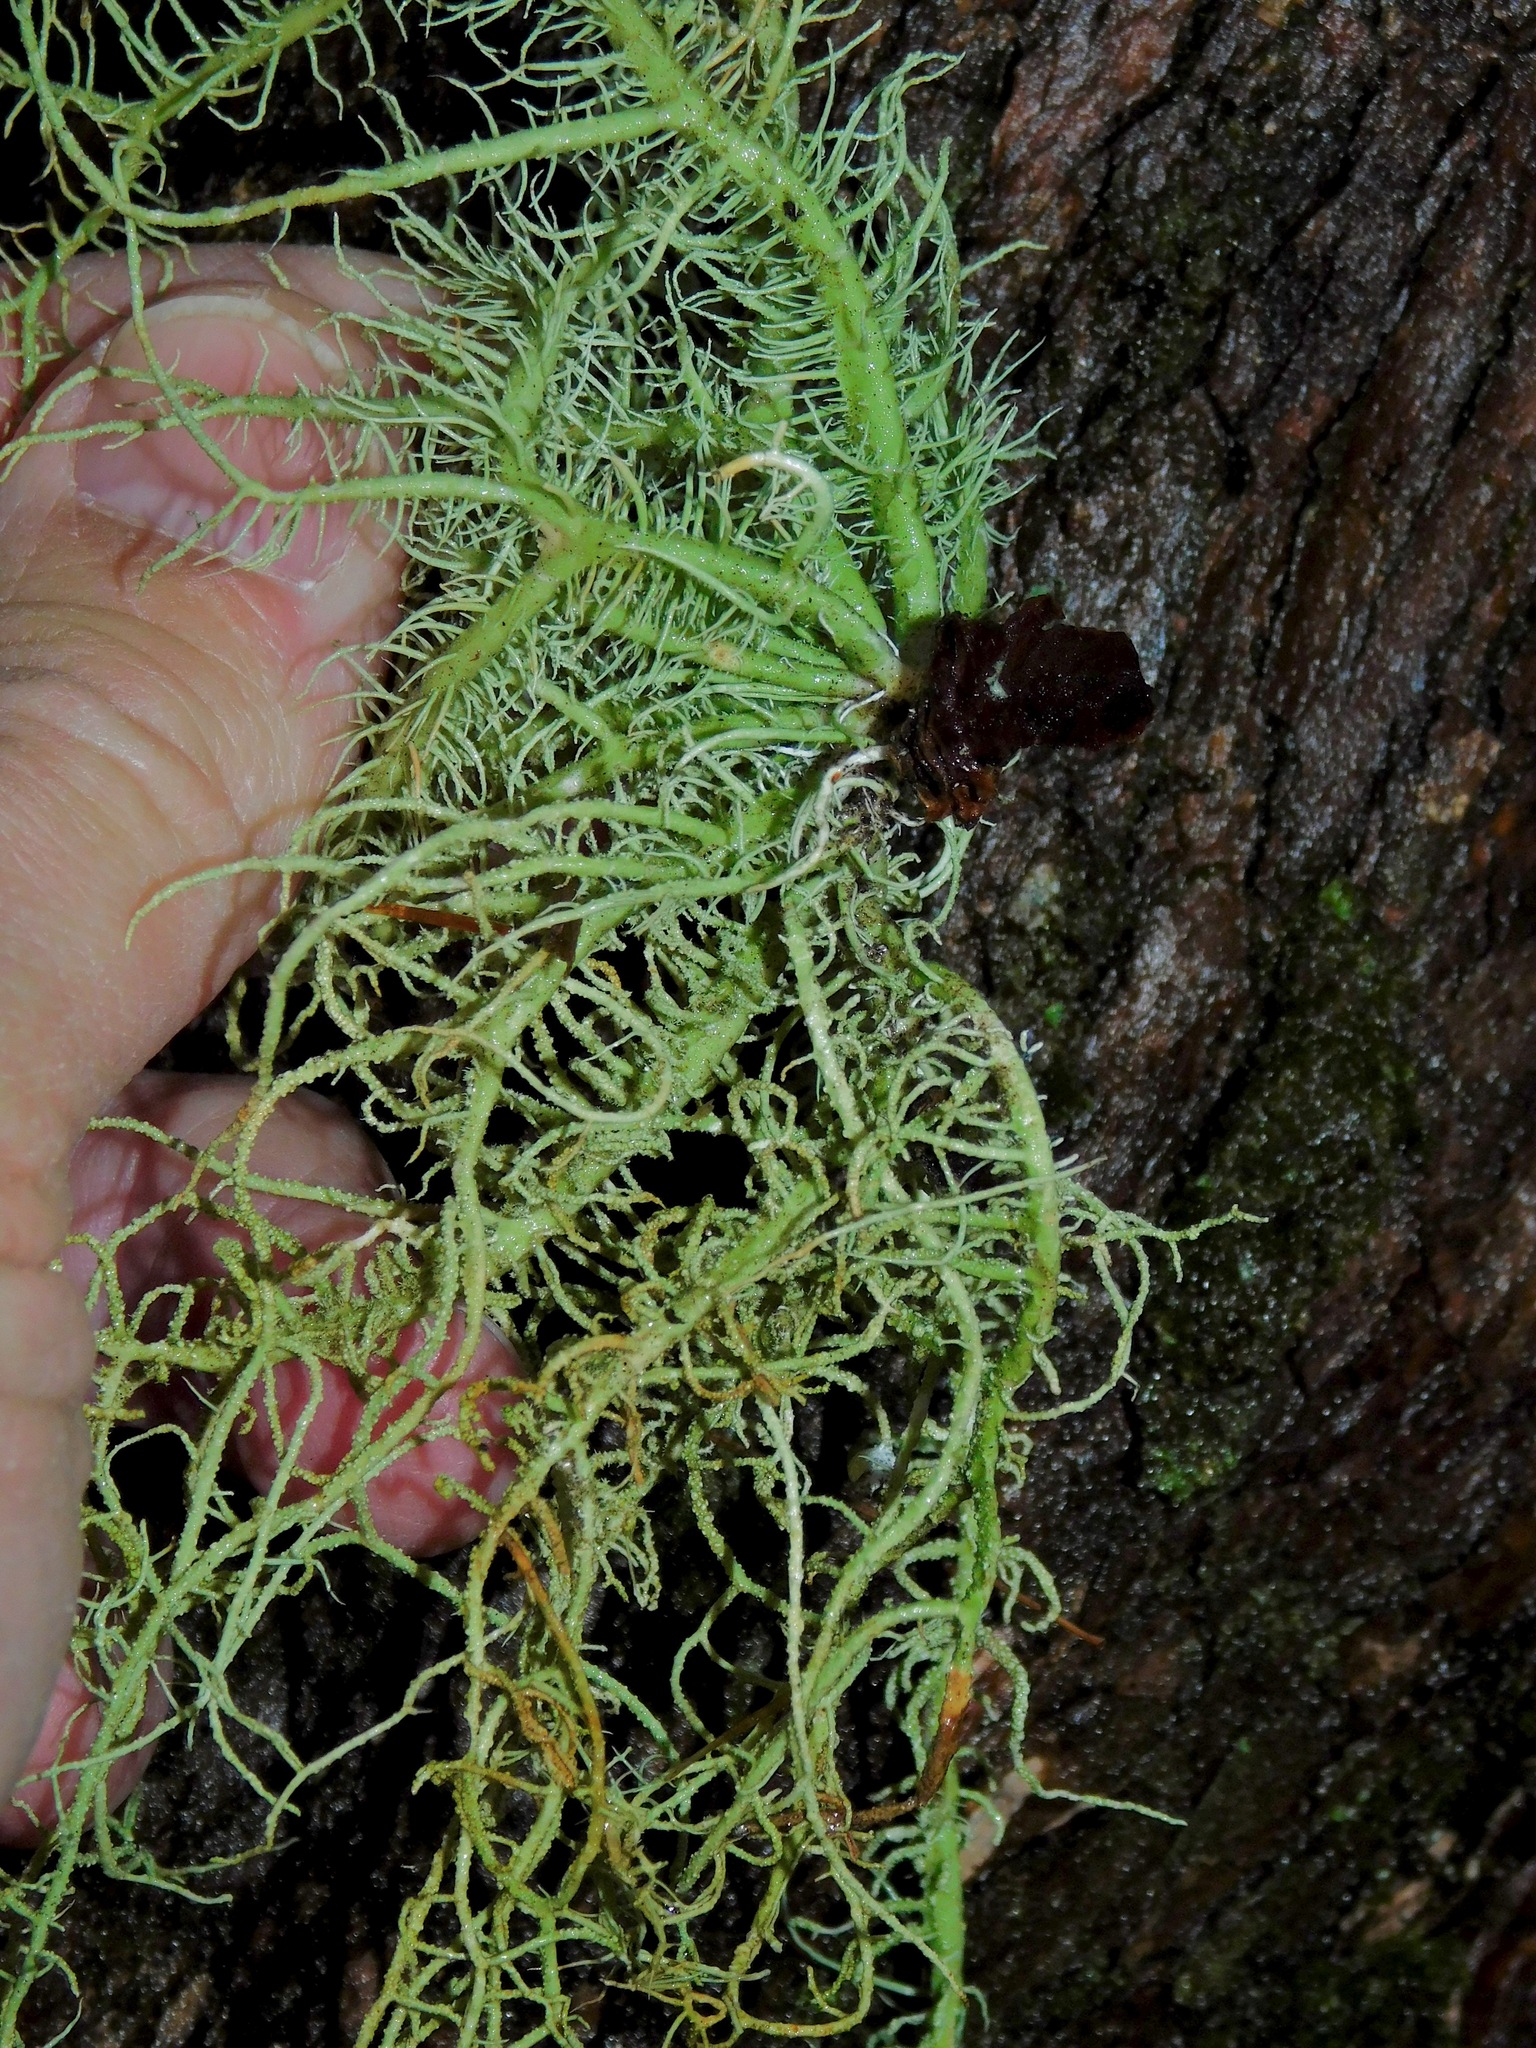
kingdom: Fungi
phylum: Ascomycota
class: Lecanoromycetes
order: Lecanorales
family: Parmeliaceae
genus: Usnea
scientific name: Usnea subscabrosa
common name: Beard lichen
